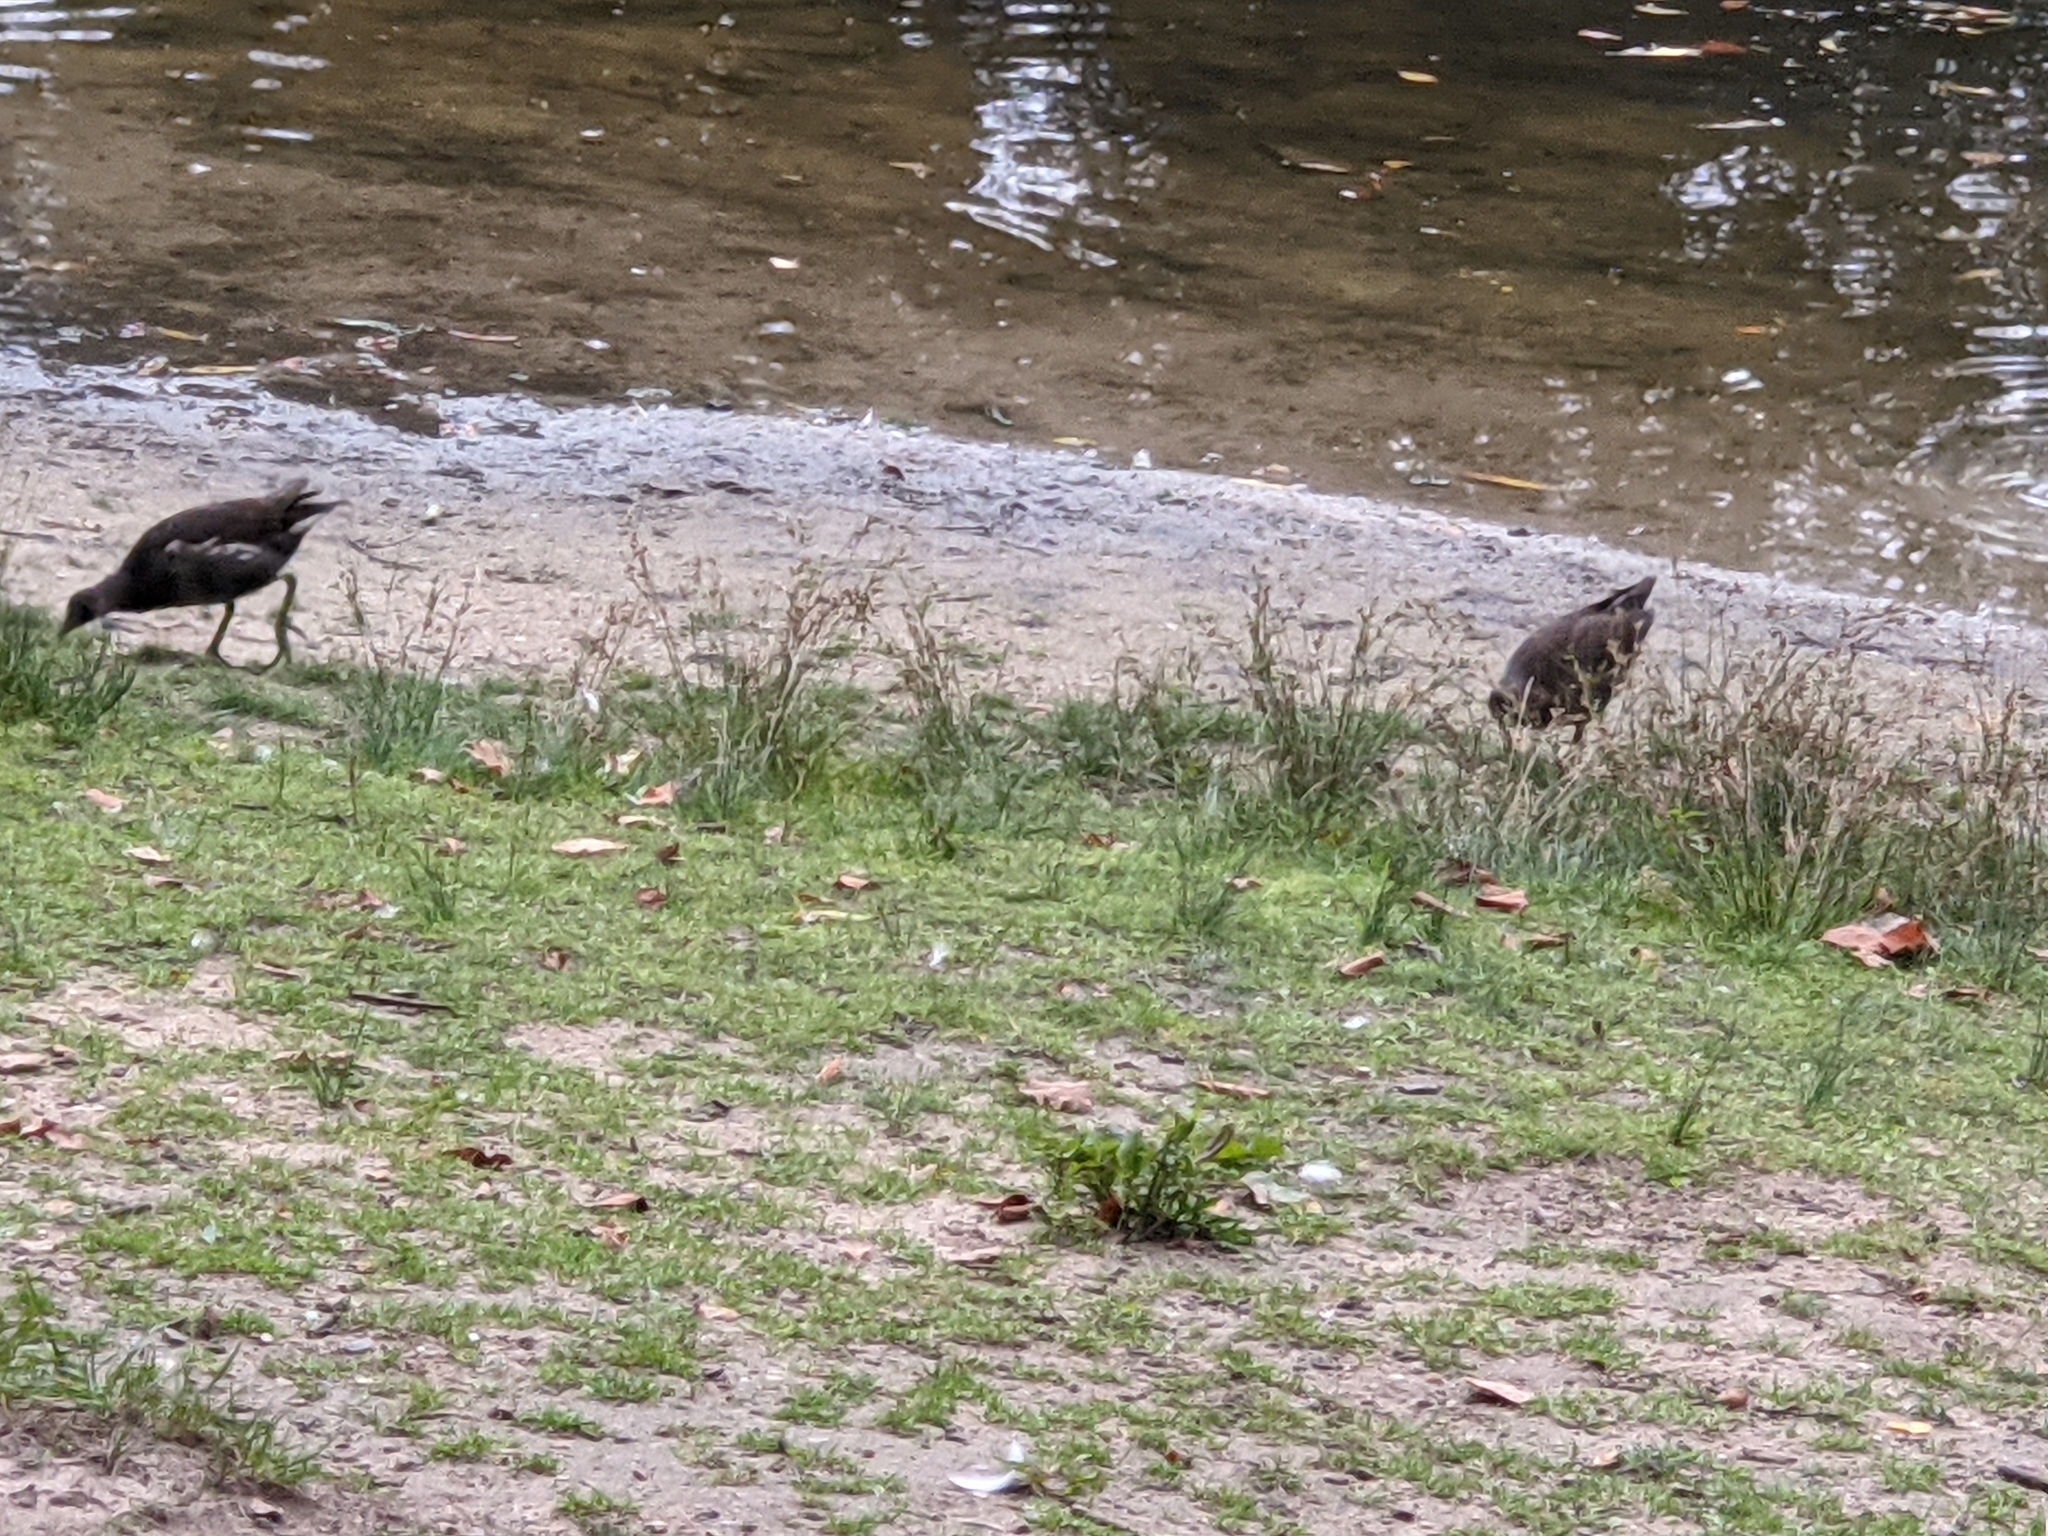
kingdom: Animalia
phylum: Chordata
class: Aves
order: Gruiformes
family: Rallidae
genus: Gallinula
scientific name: Gallinula chloropus
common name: Common moorhen
